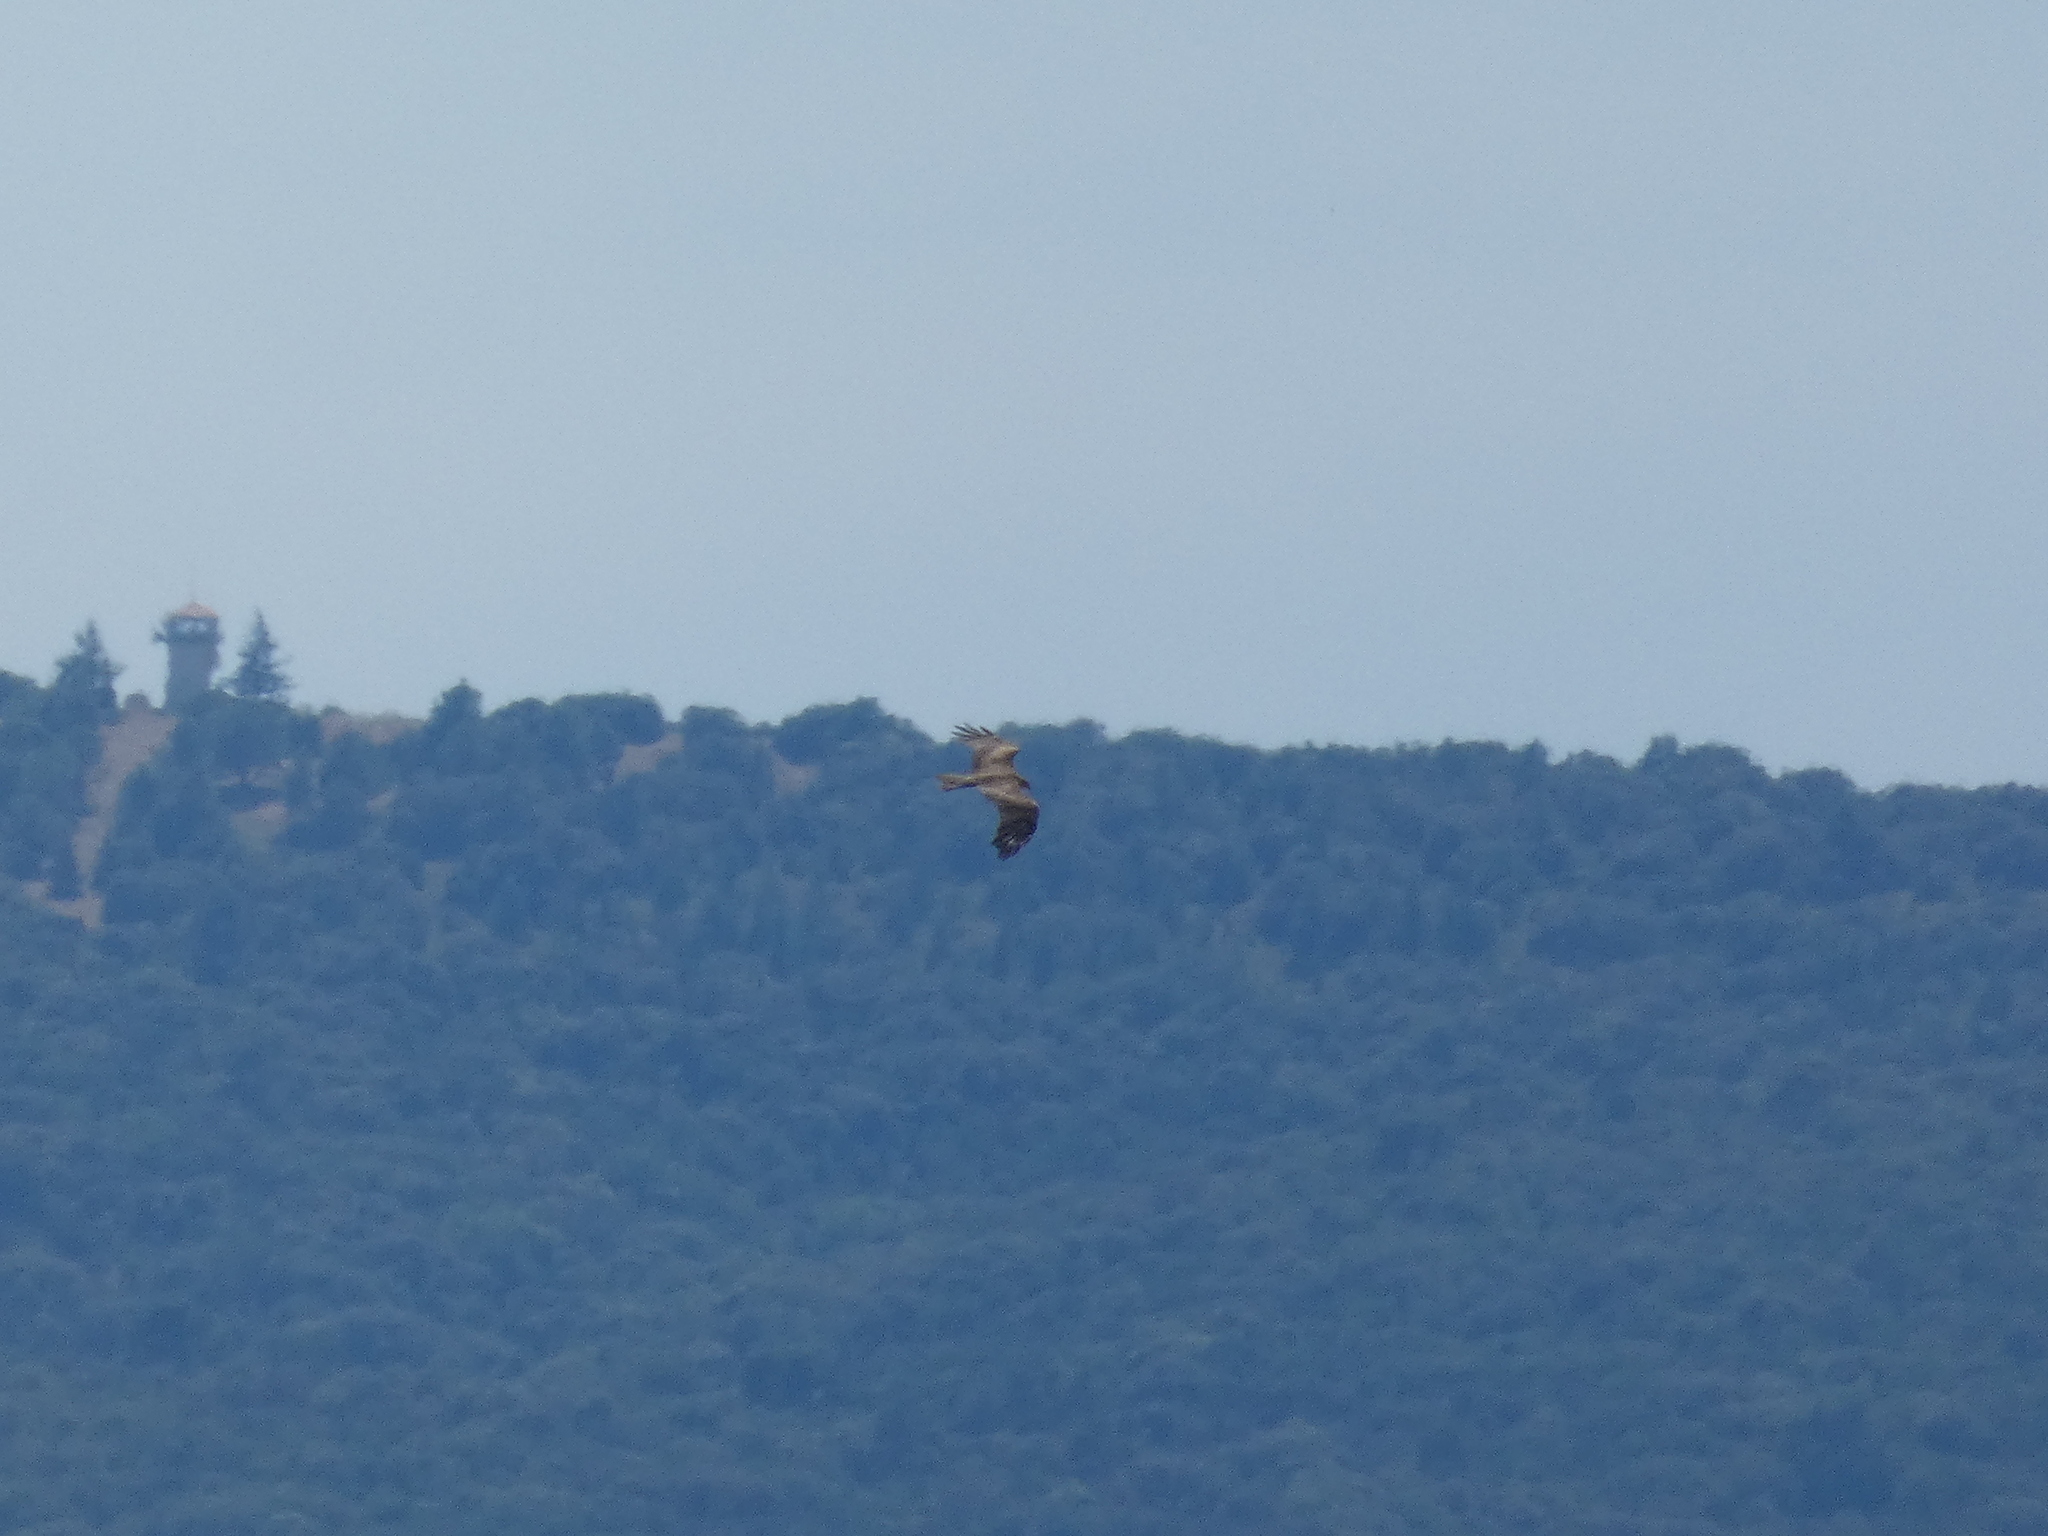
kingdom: Animalia
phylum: Chordata
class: Aves
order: Accipitriformes
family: Accipitridae
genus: Milvus
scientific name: Milvus migrans
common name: Black kite
